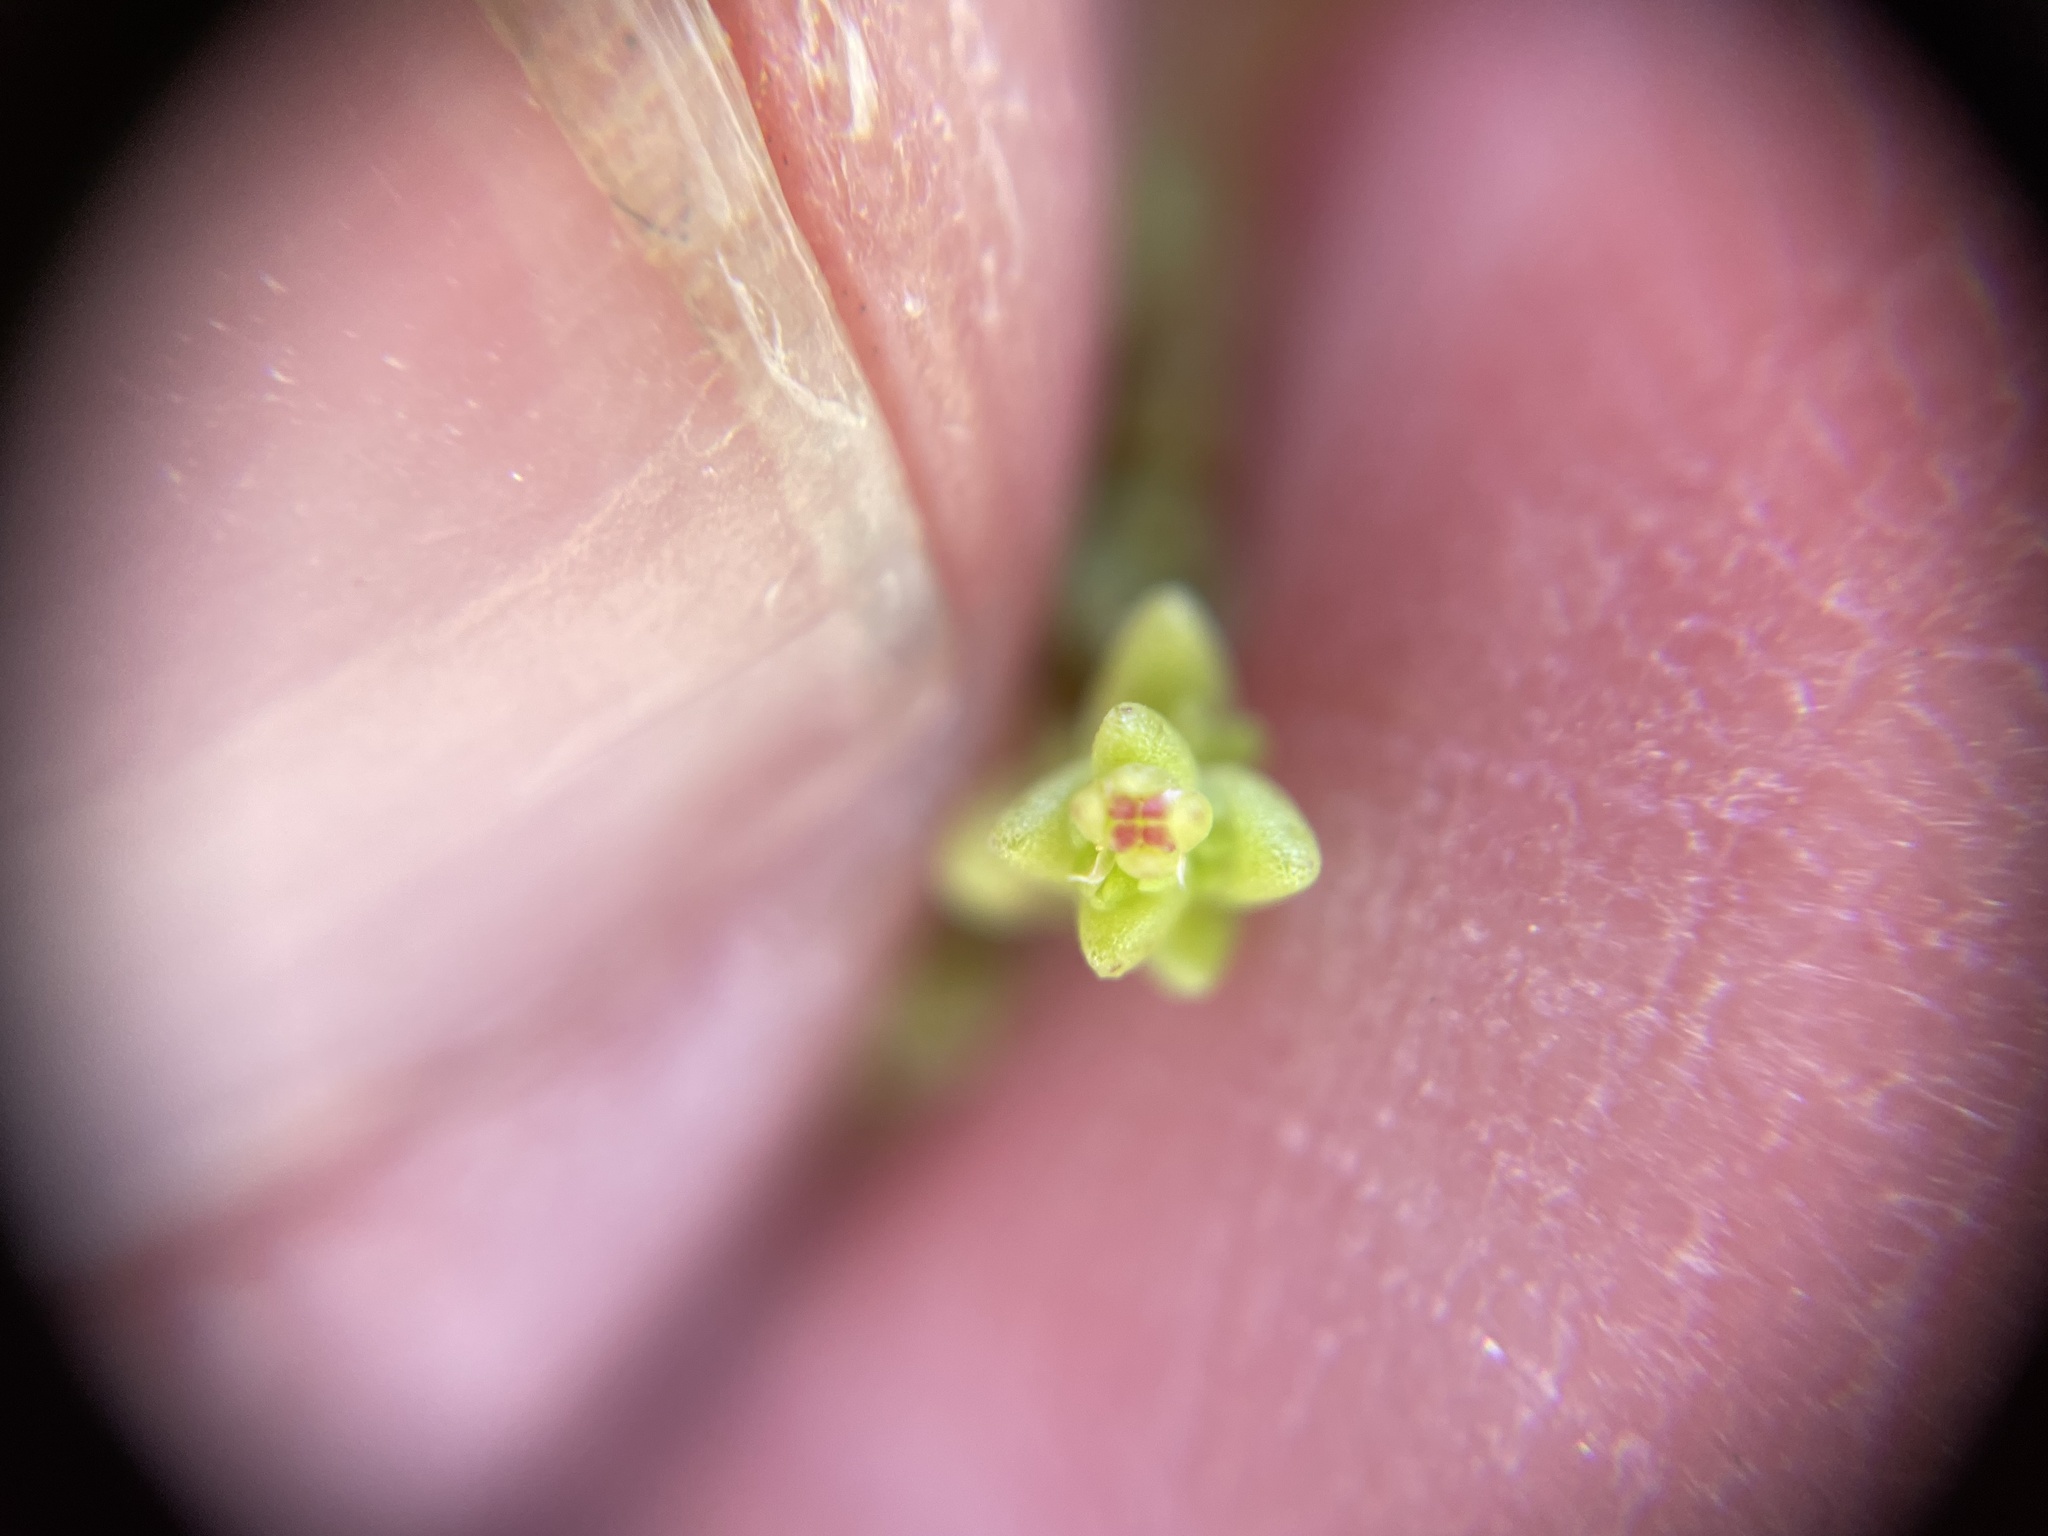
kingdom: Plantae
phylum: Tracheophyta
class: Magnoliopsida
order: Saxifragales
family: Crassulaceae
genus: Crassula
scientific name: Crassula connata
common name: Erect pygmyweed
